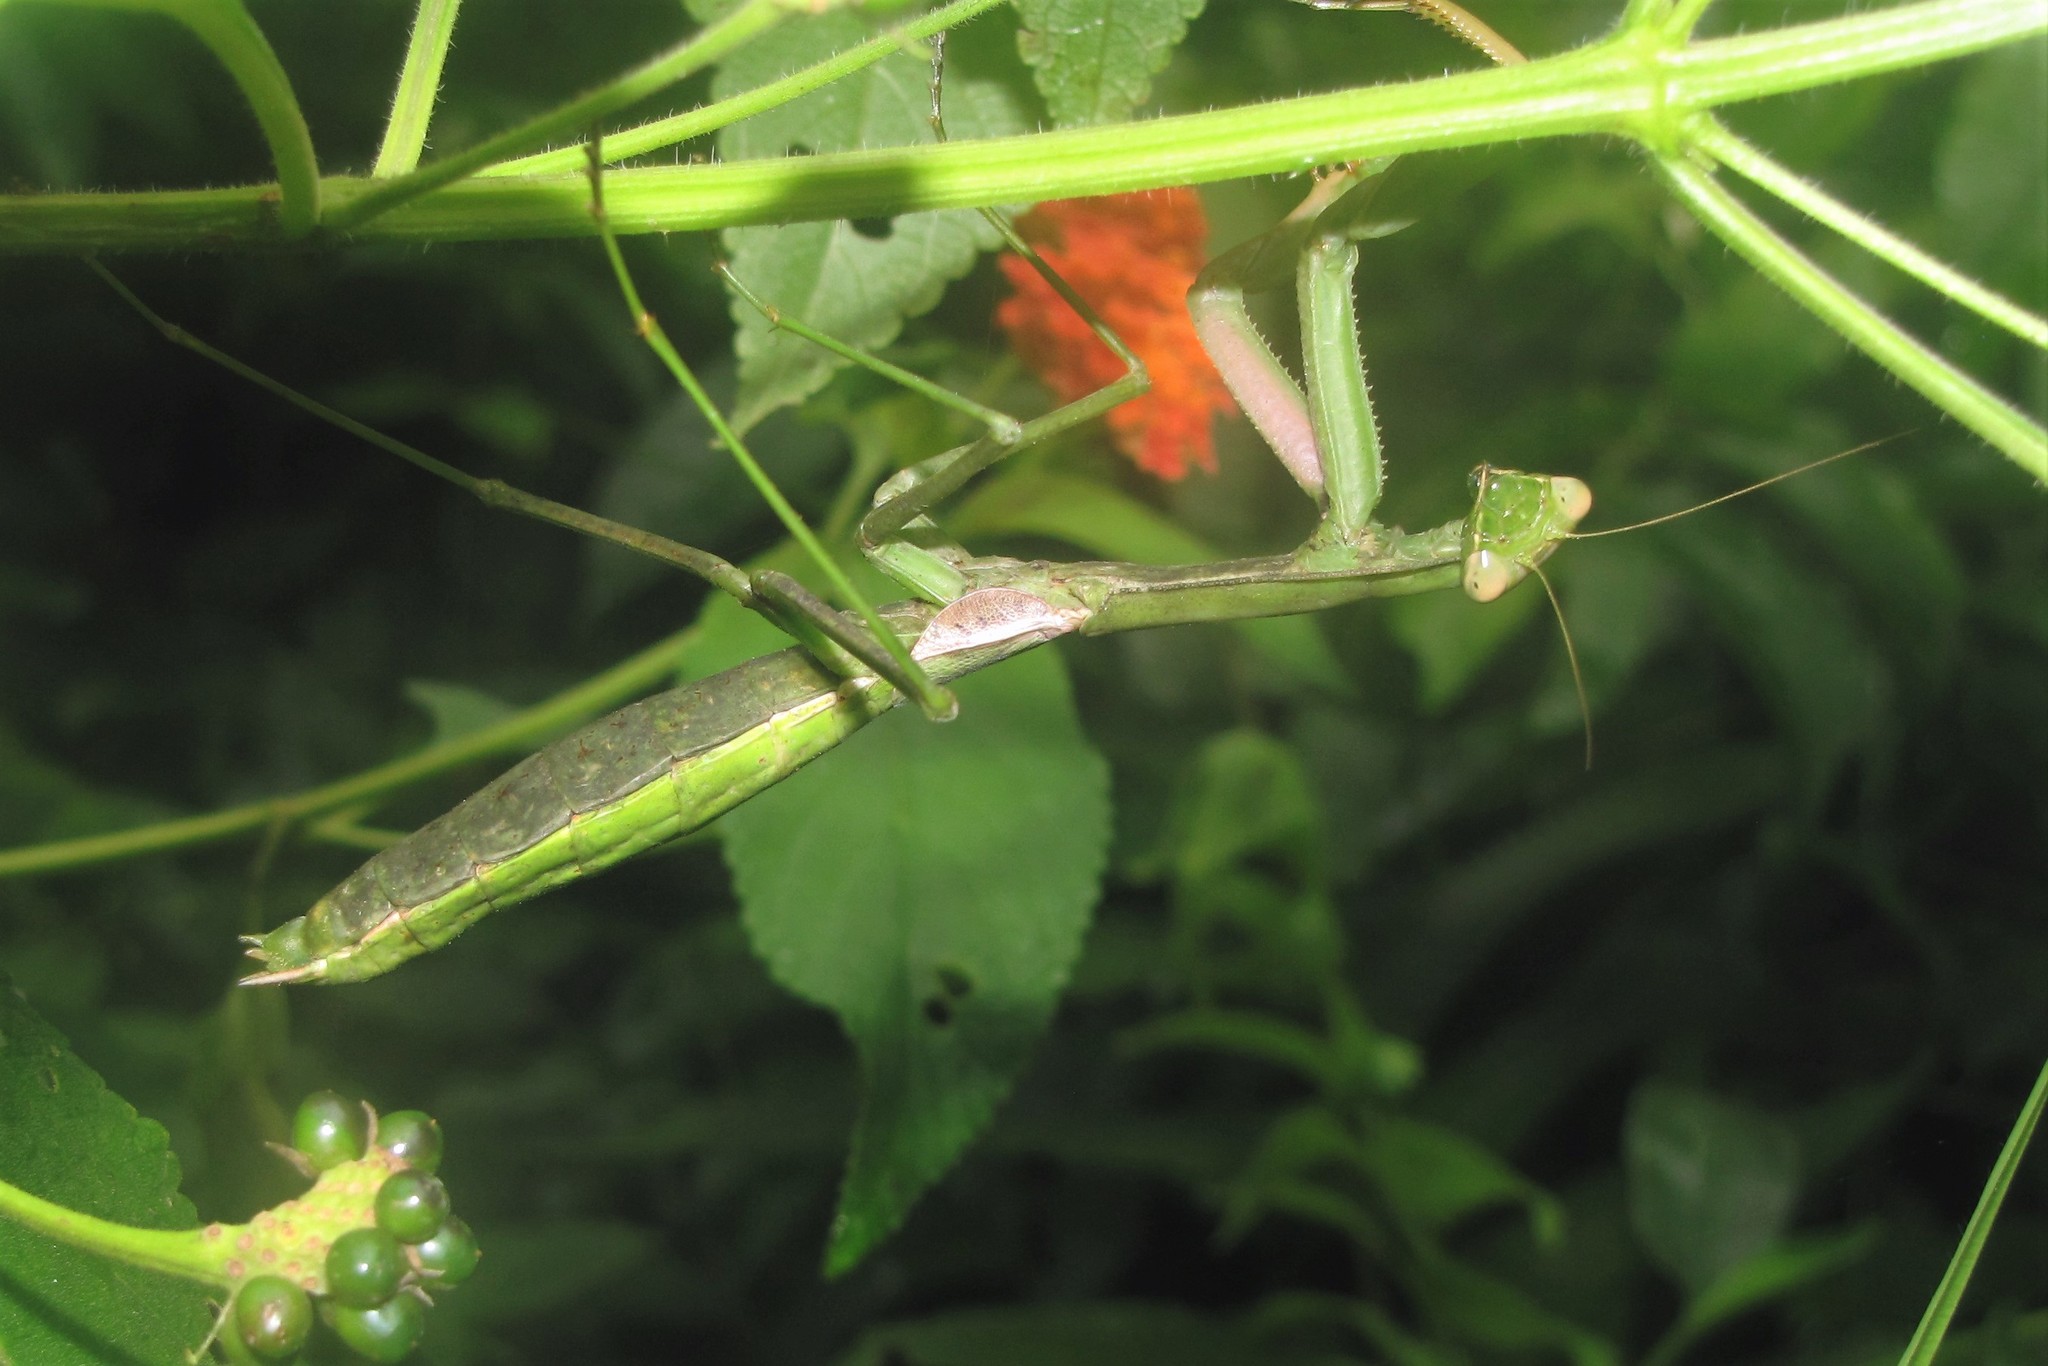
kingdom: Animalia
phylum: Arthropoda
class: Insecta
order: Mantodea
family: Coptopterygidae
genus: Coptopteryx
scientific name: Coptopteryx argentina
